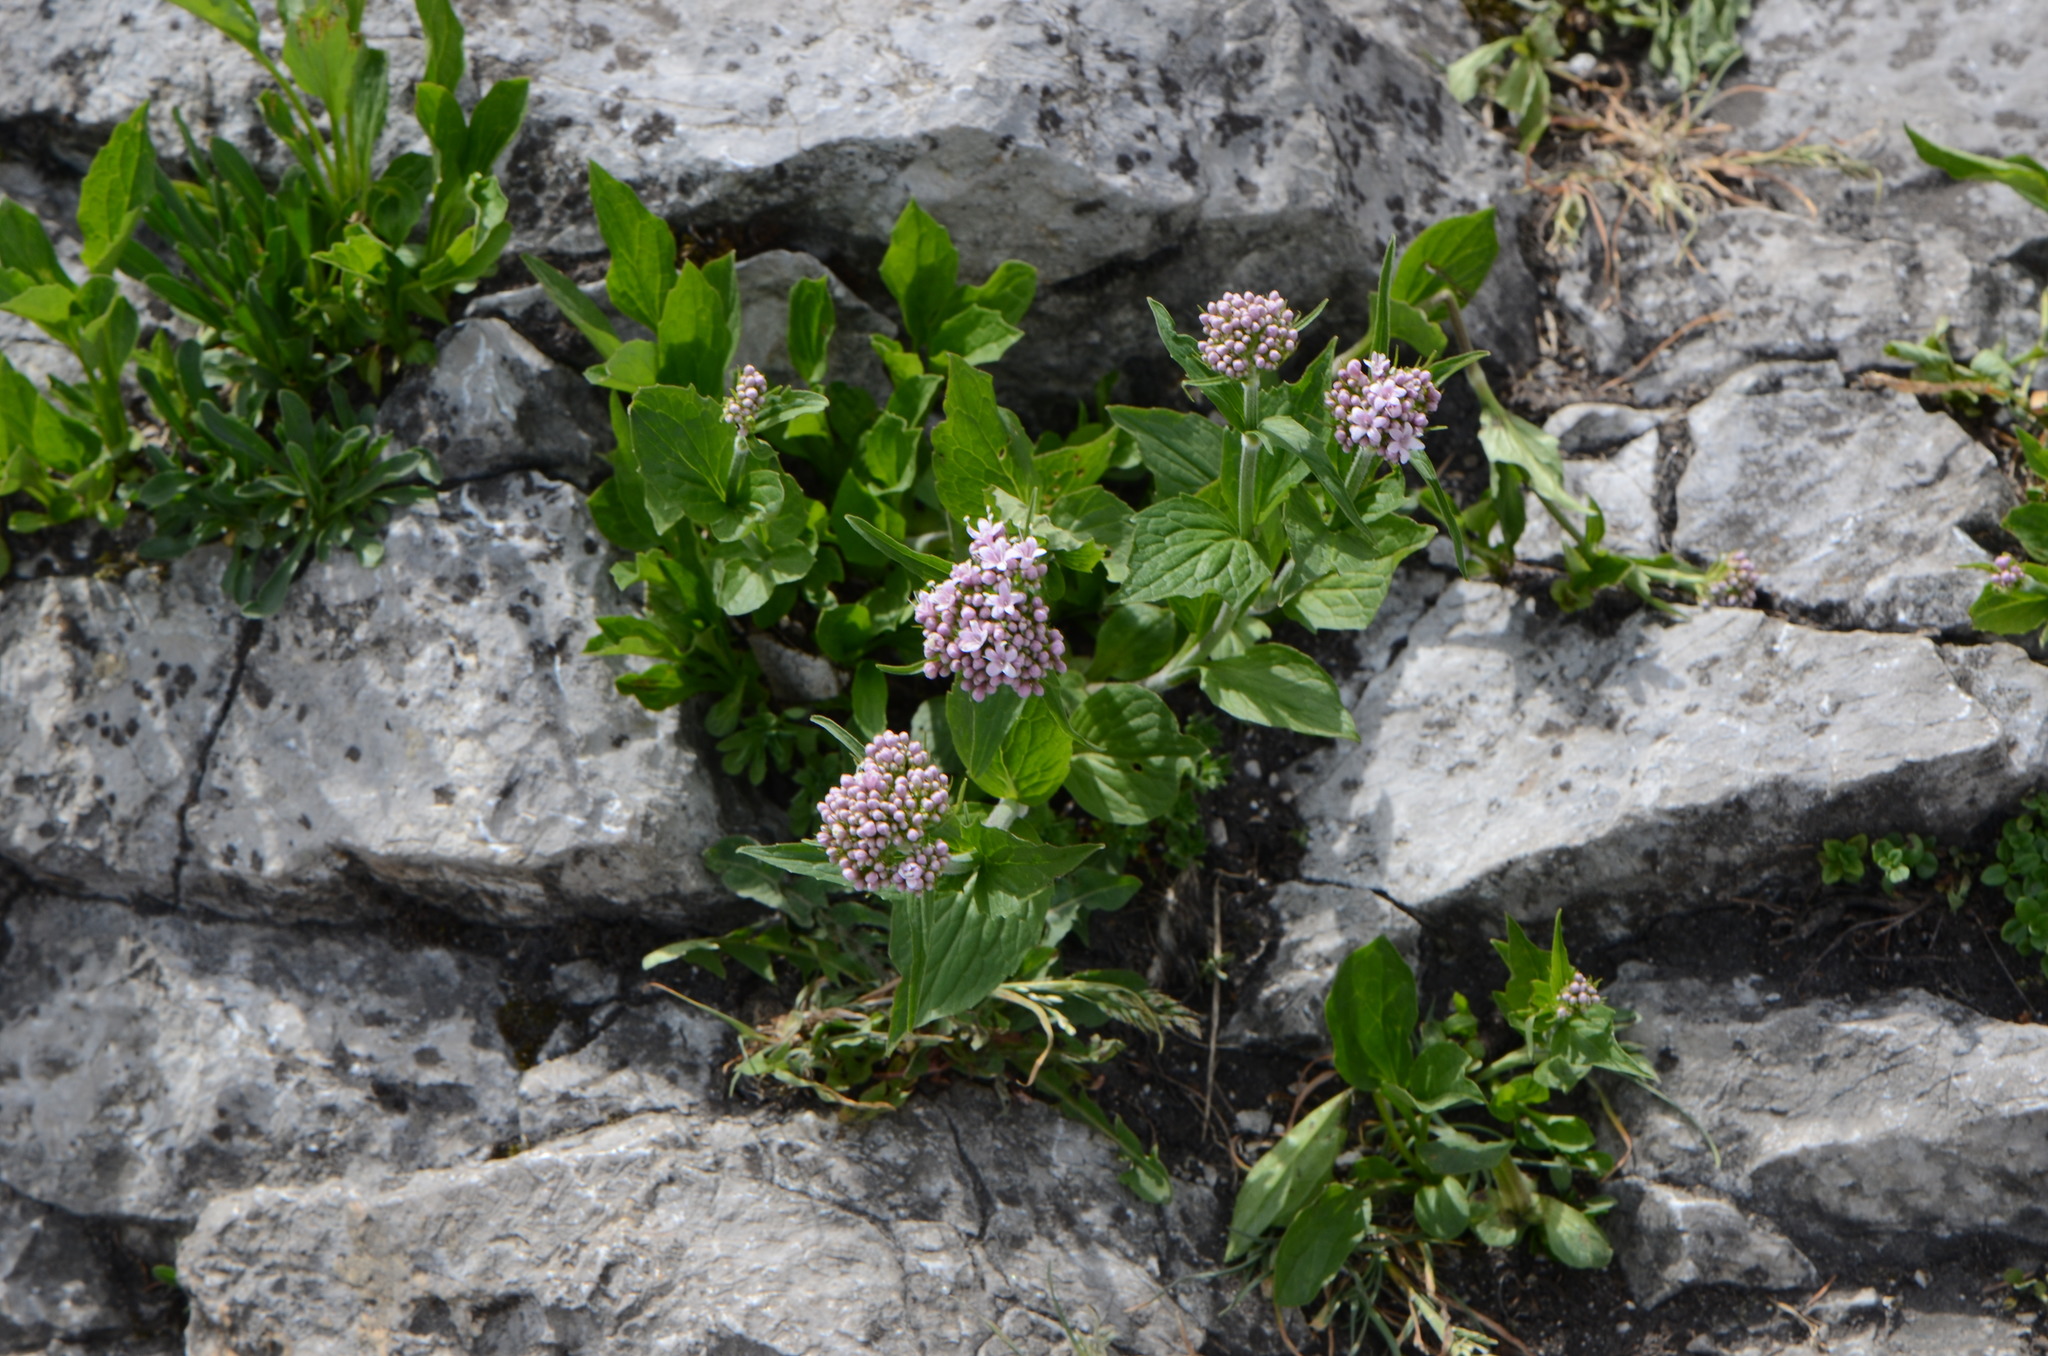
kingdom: Plantae
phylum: Tracheophyta
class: Magnoliopsida
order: Dipsacales
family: Caprifoliaceae
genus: Valeriana
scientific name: Valeriana montana
